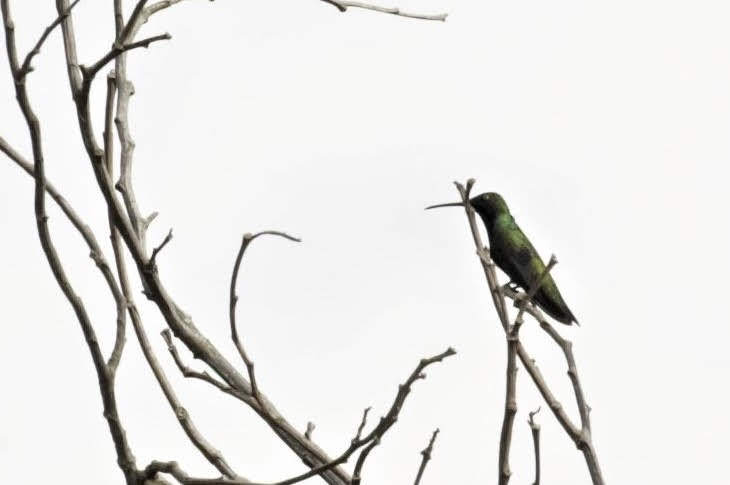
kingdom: Animalia
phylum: Chordata
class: Aves
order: Apodiformes
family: Trochilidae
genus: Anthracothorax
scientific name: Anthracothorax nigricollis
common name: Black-throated mango
